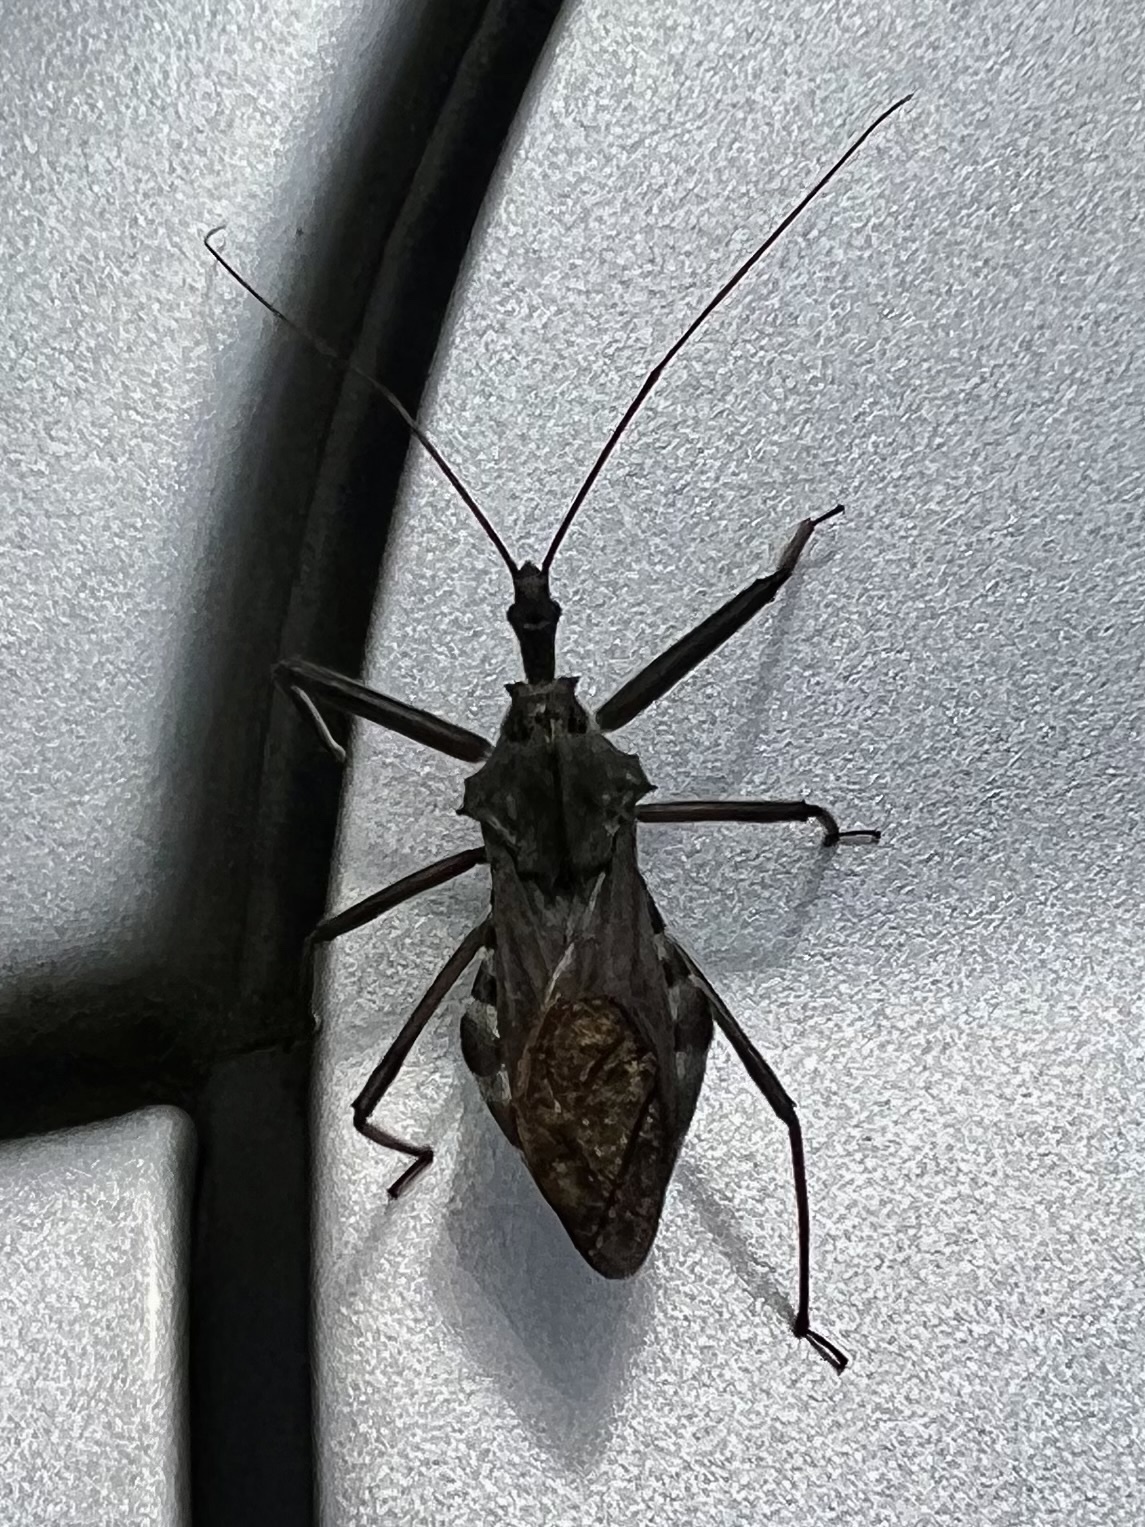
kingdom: Animalia
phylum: Arthropoda
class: Insecta
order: Hemiptera
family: Reduviidae
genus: Arilus
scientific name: Arilus cristatus
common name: North american wheel bug
